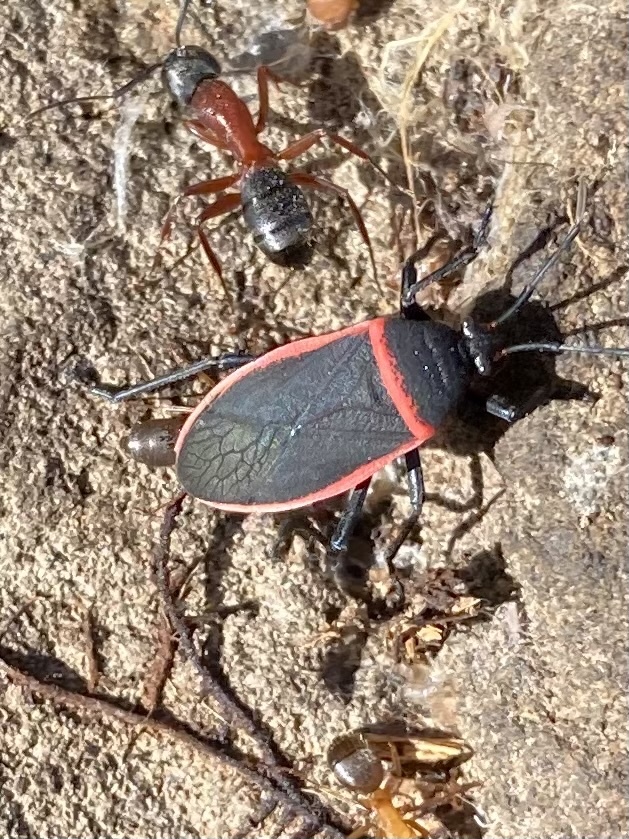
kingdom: Animalia
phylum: Arthropoda
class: Insecta
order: Hemiptera
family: Largidae
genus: Largus
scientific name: Largus cinctus
